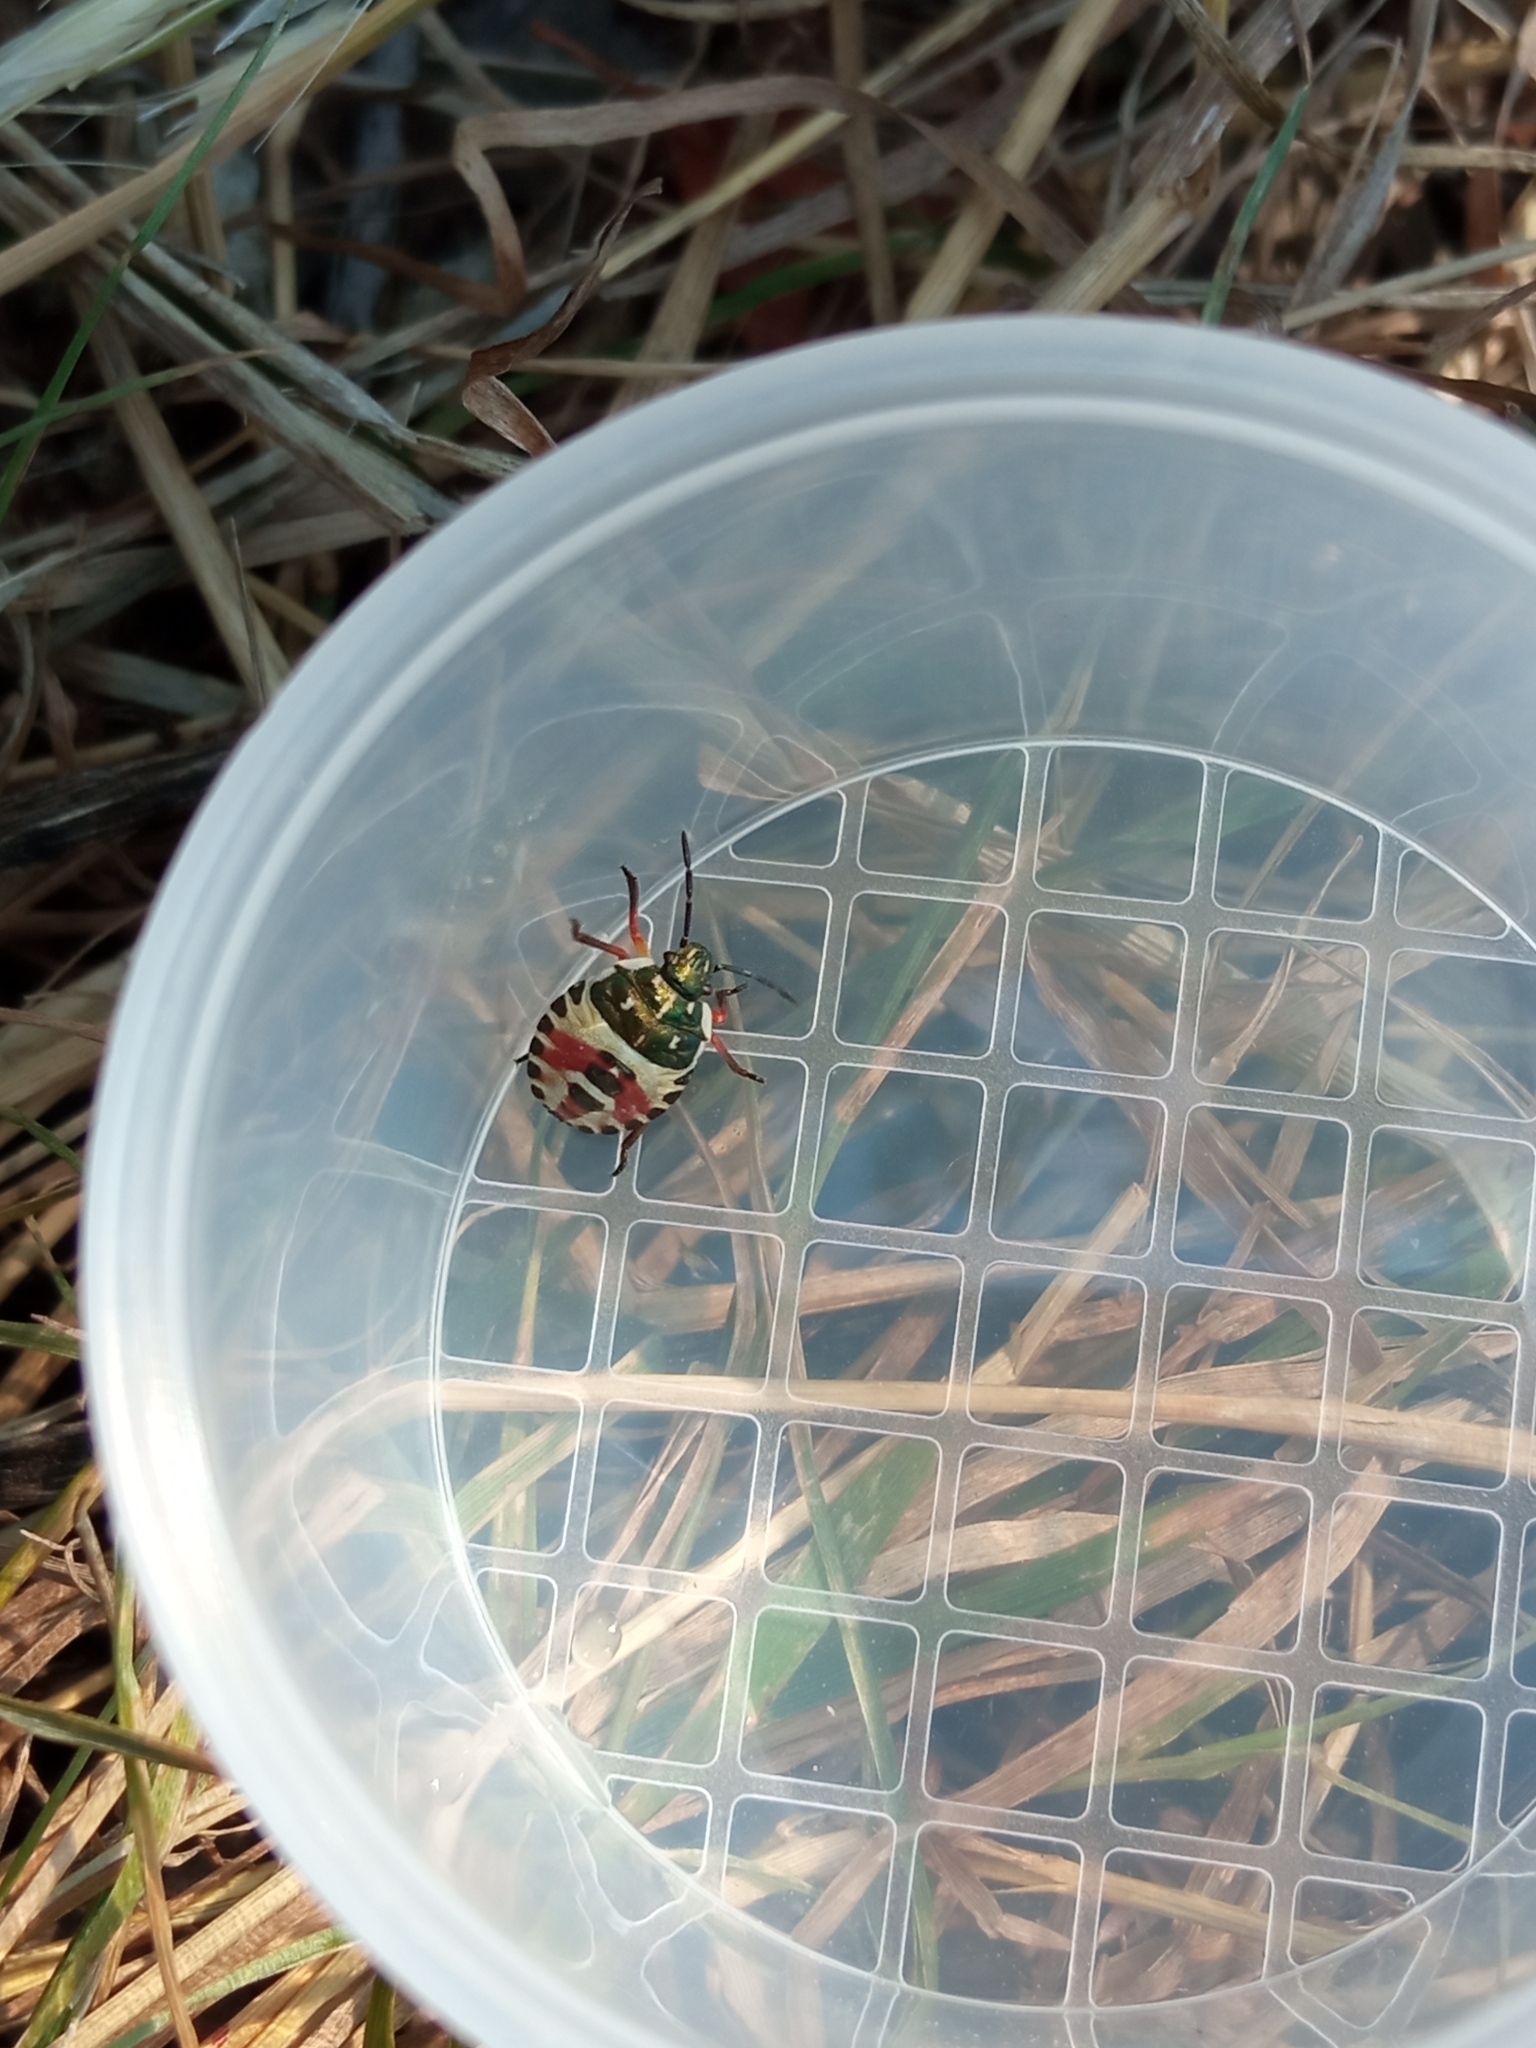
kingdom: Animalia
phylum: Arthropoda
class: Insecta
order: Hemiptera
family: Pentatomidae
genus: Carpocoris
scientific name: Carpocoris
